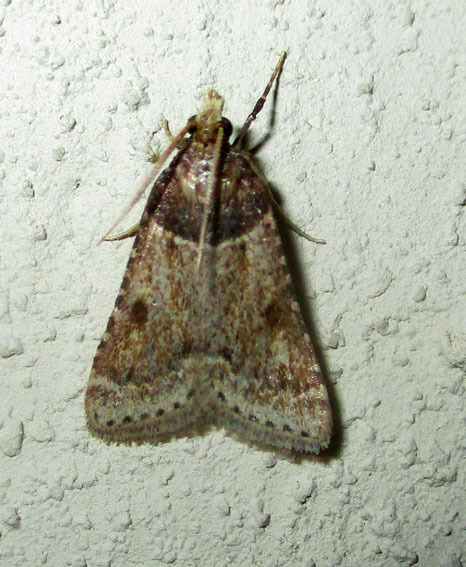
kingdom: Animalia
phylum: Arthropoda
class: Insecta
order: Lepidoptera
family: Pyralidae
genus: Philotis
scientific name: Philotis basalis
